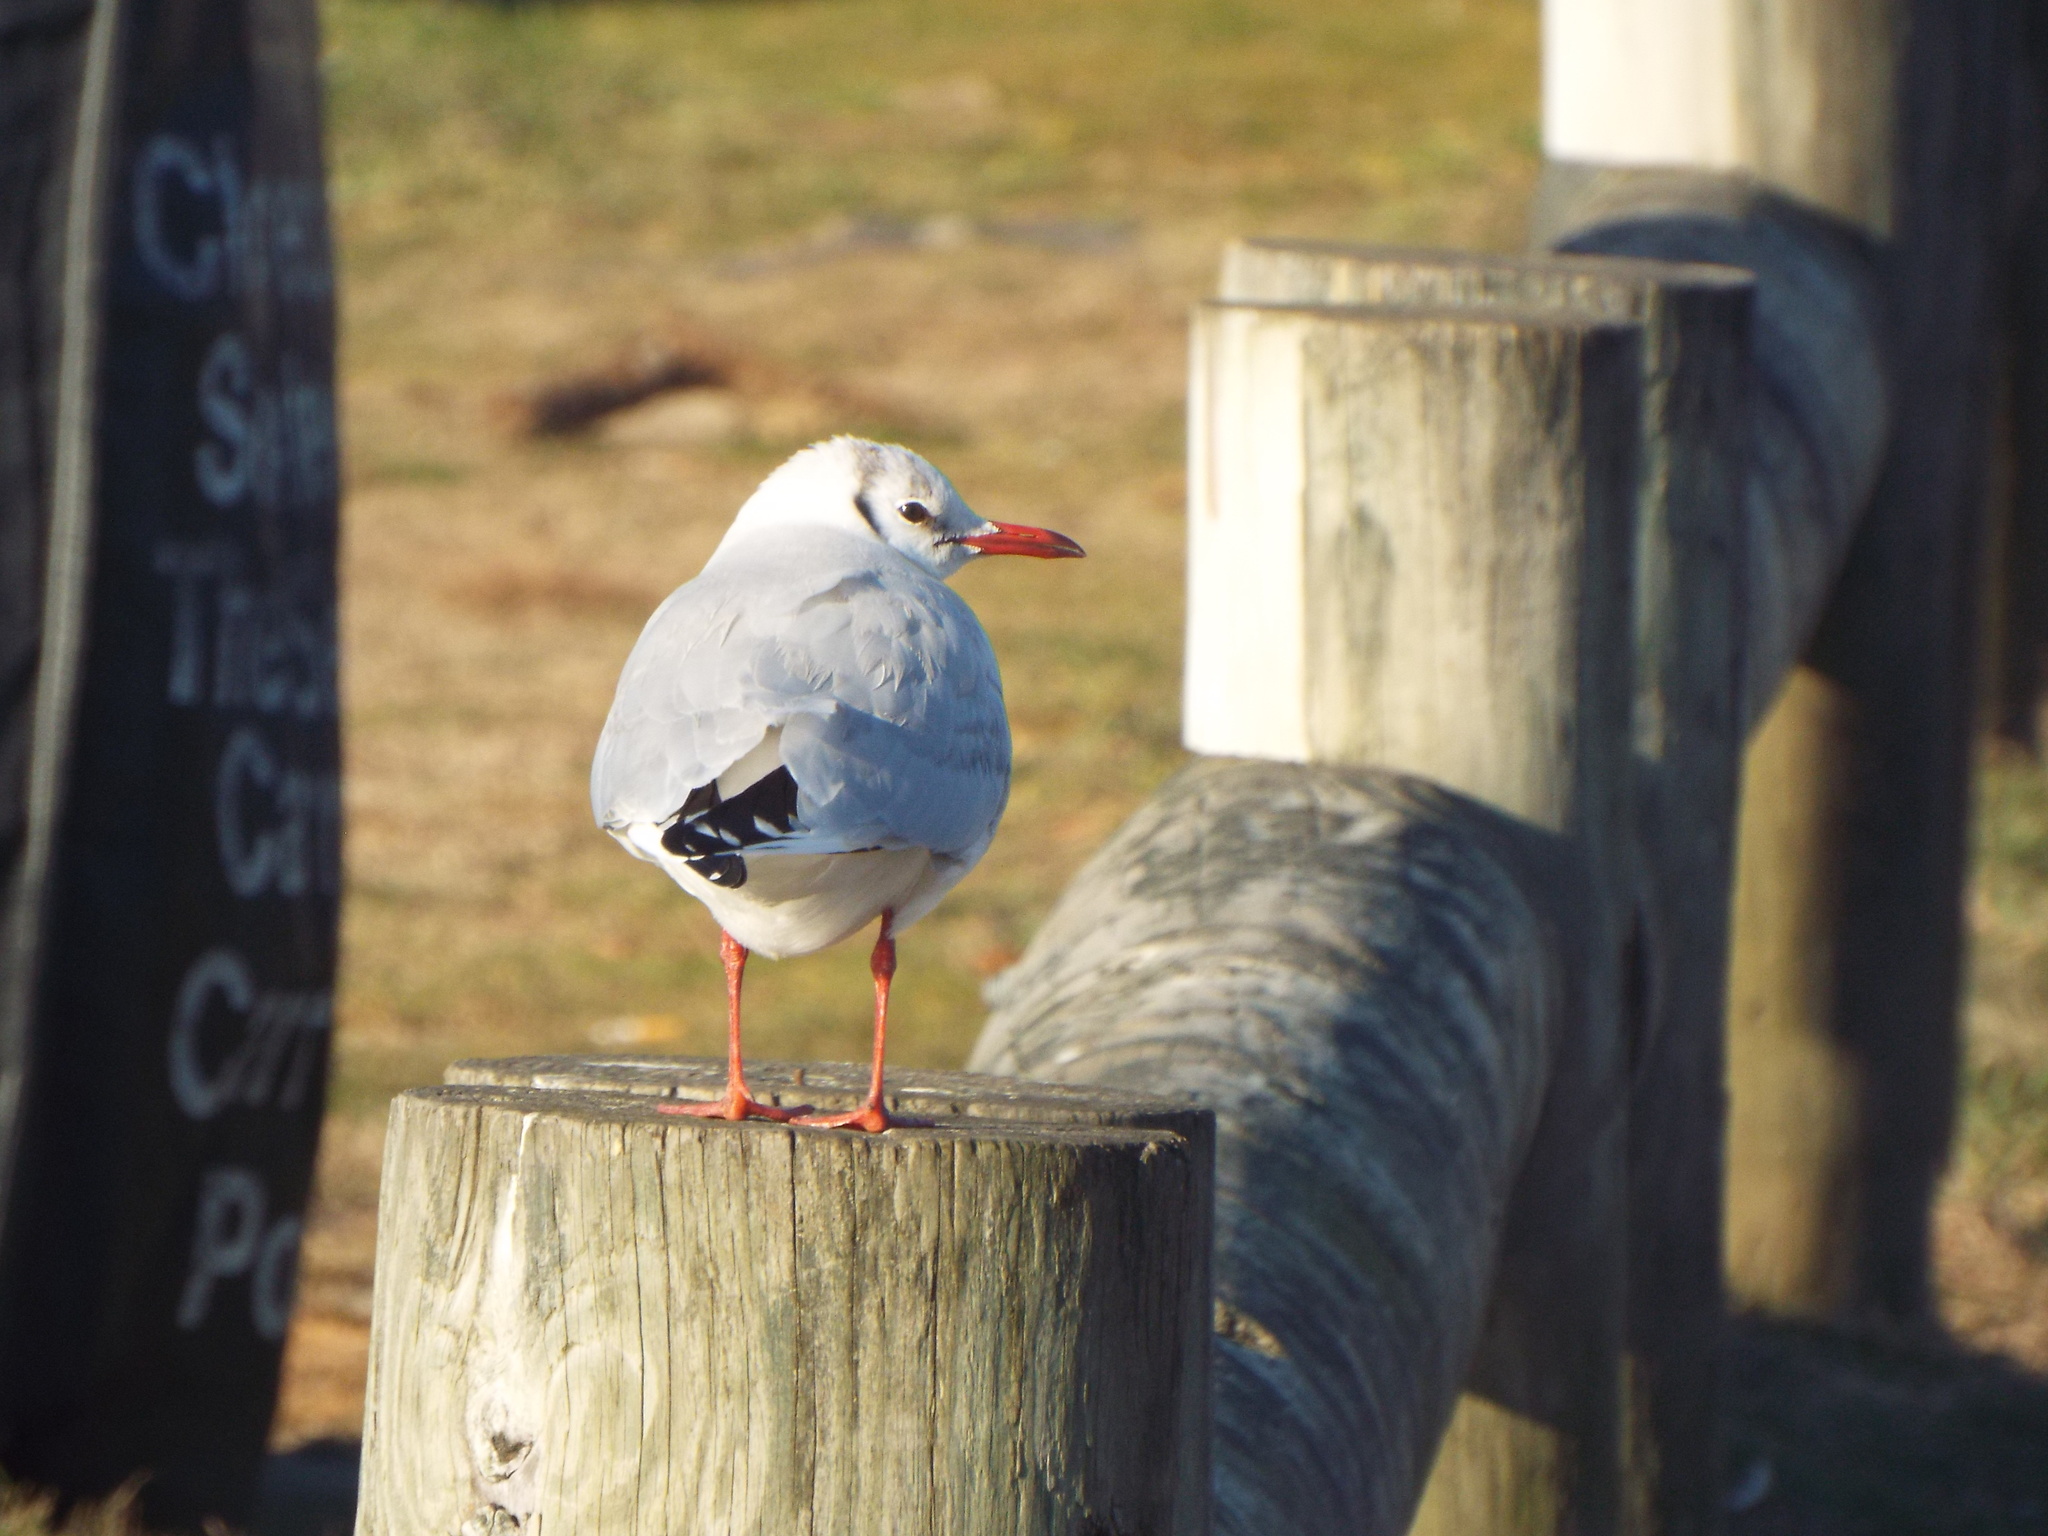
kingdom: Animalia
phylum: Chordata
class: Aves
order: Charadriiformes
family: Laridae
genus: Chroicocephalus
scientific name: Chroicocephalus ridibundus
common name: Black-headed gull
